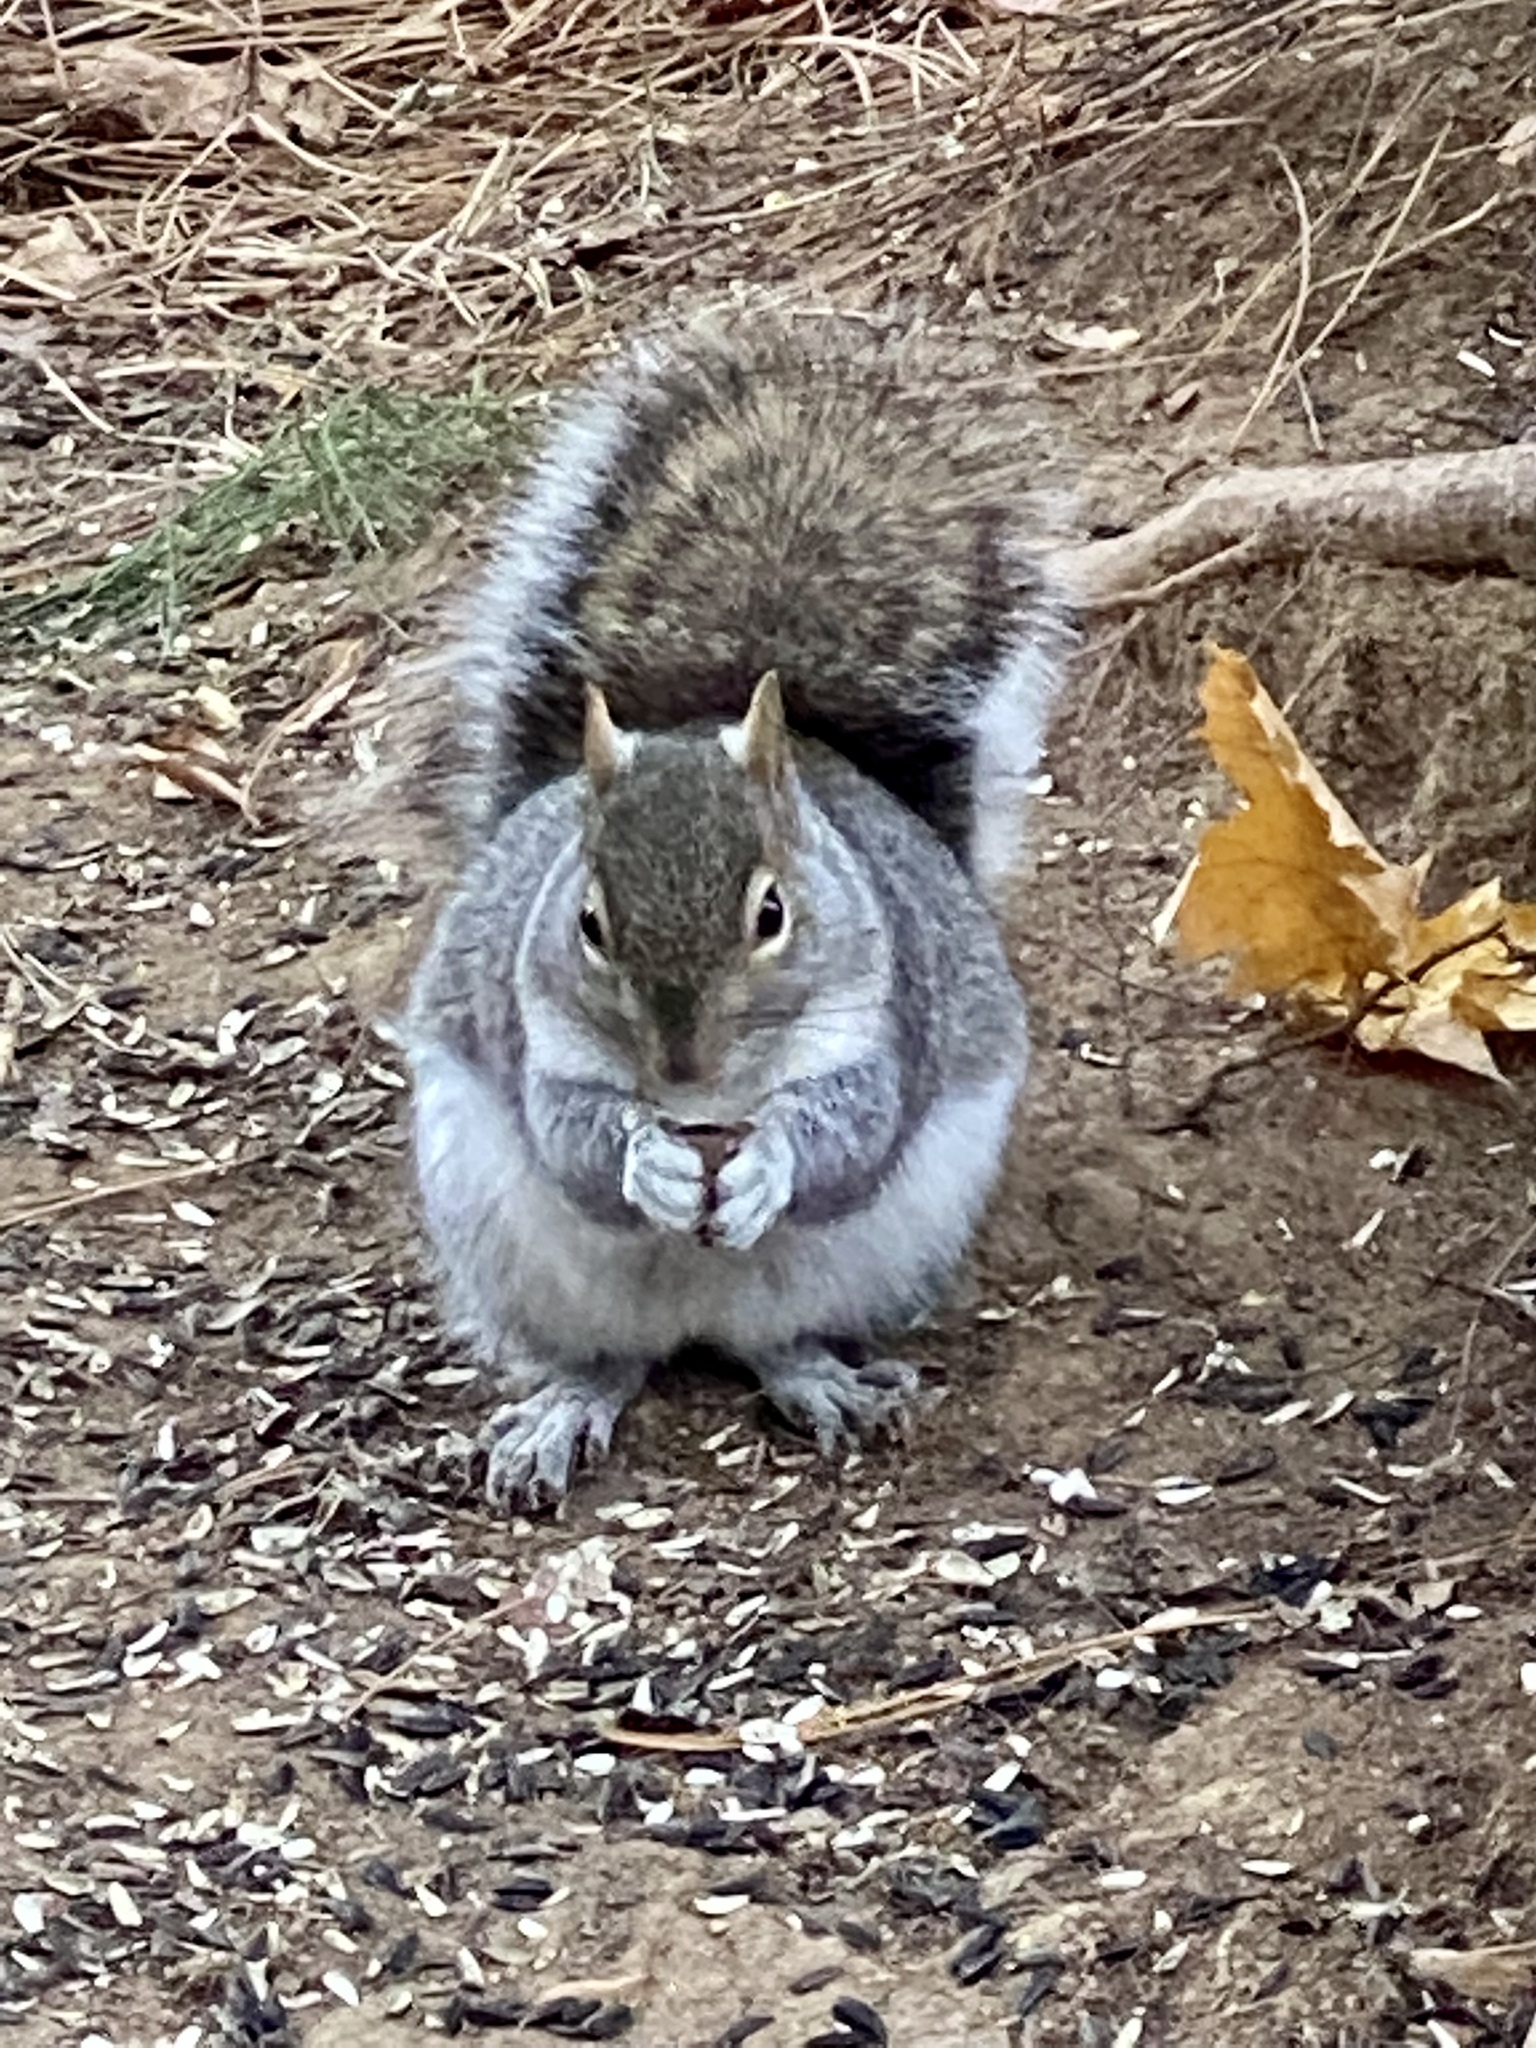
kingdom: Animalia
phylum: Chordata
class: Mammalia
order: Rodentia
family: Sciuridae
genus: Sciurus
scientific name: Sciurus carolinensis
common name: Eastern gray squirrel
